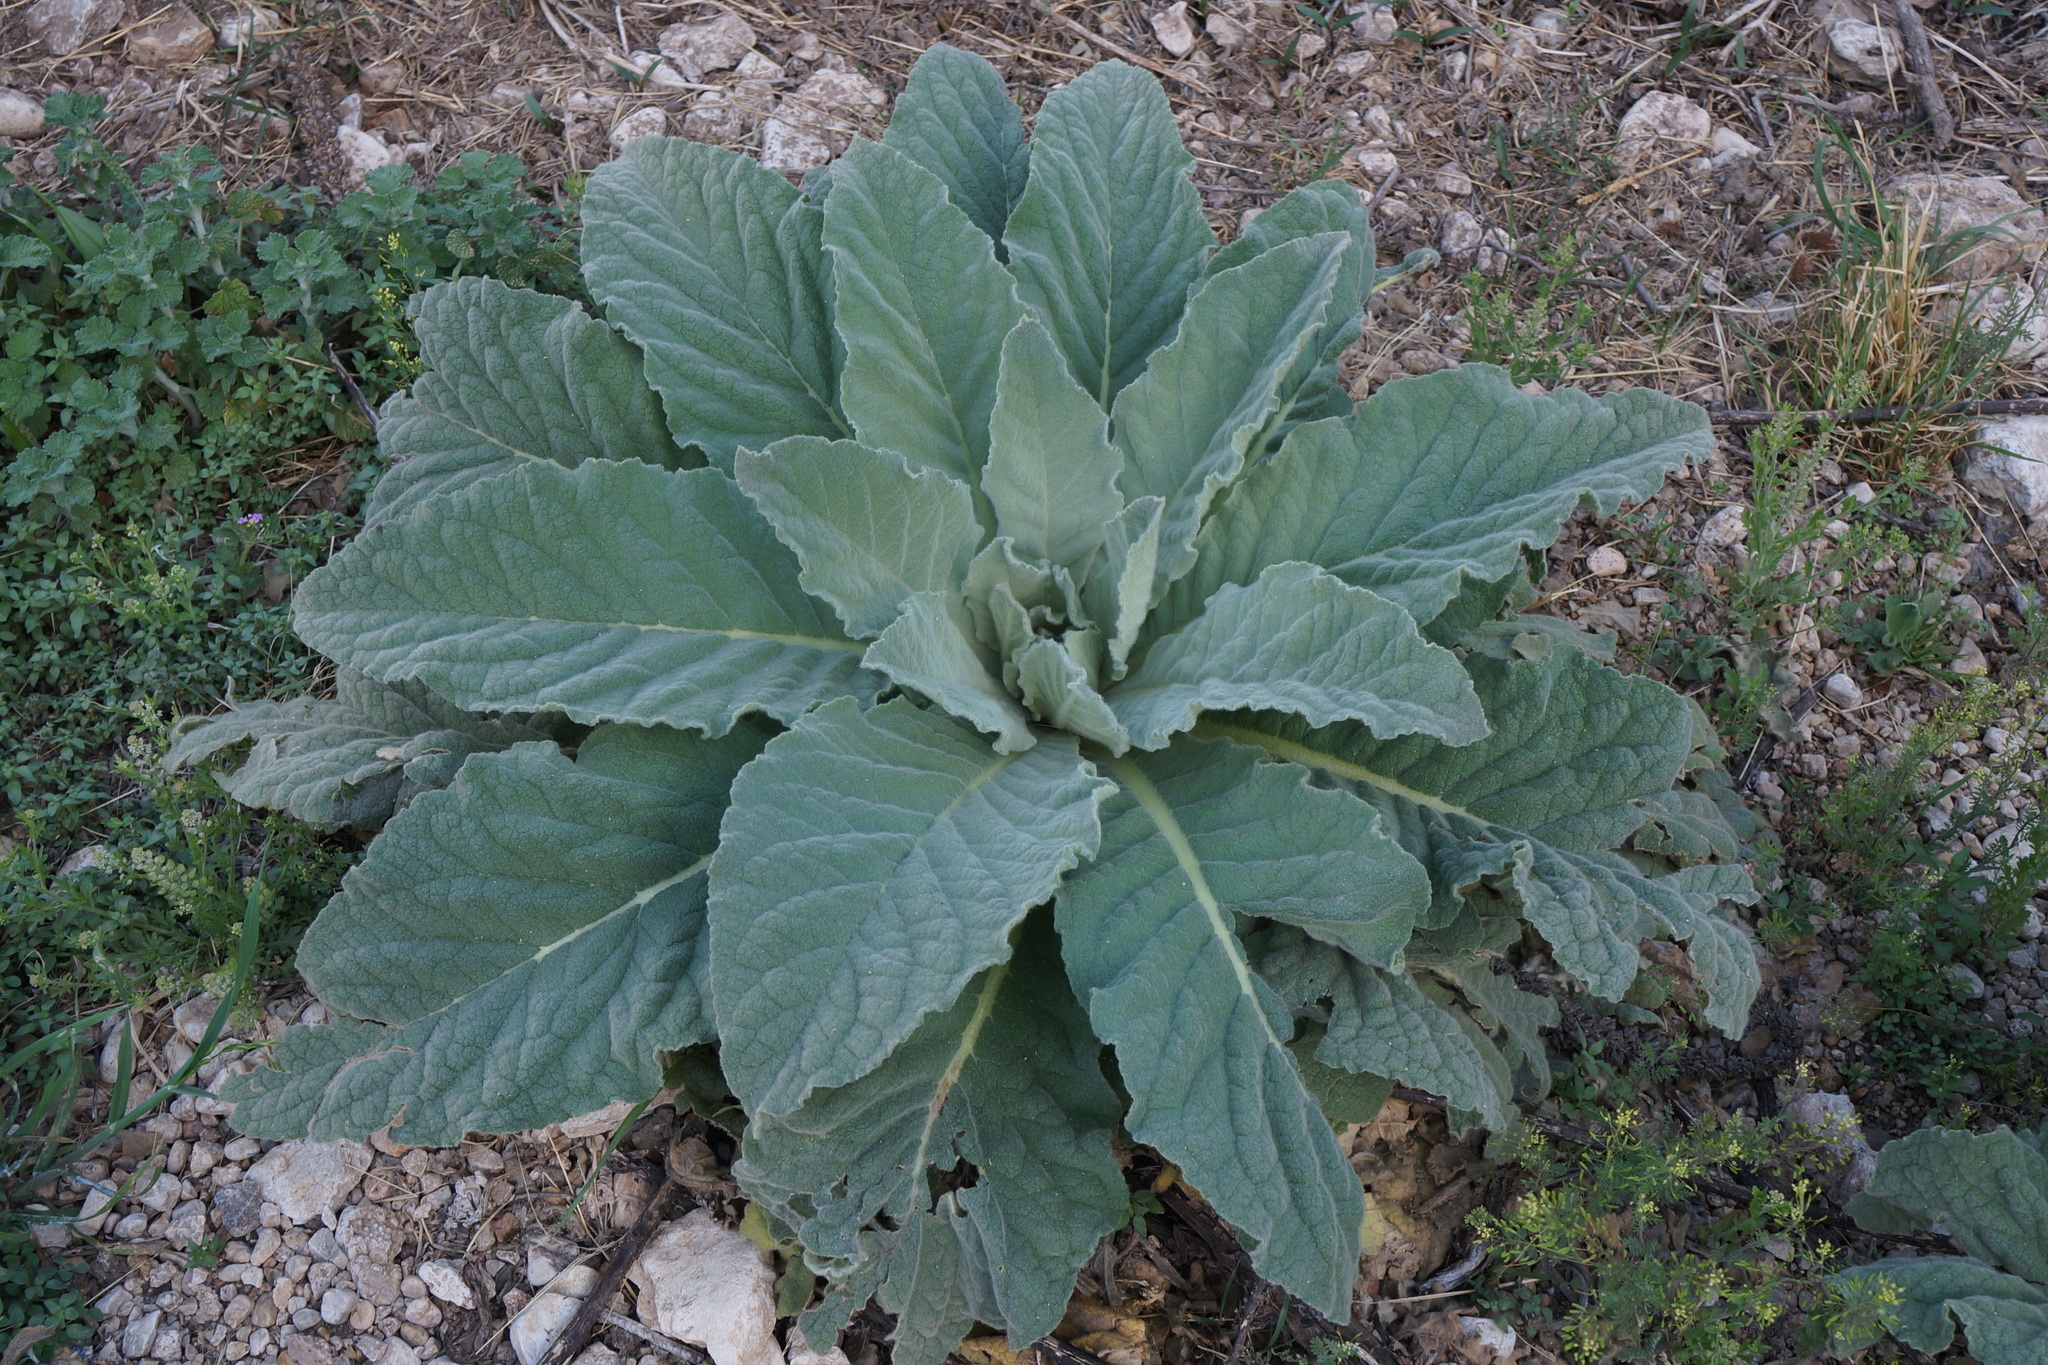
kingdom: Plantae
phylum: Tracheophyta
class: Magnoliopsida
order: Lamiales
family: Scrophulariaceae
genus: Verbascum
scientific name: Verbascum thapsus
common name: Common mullein
